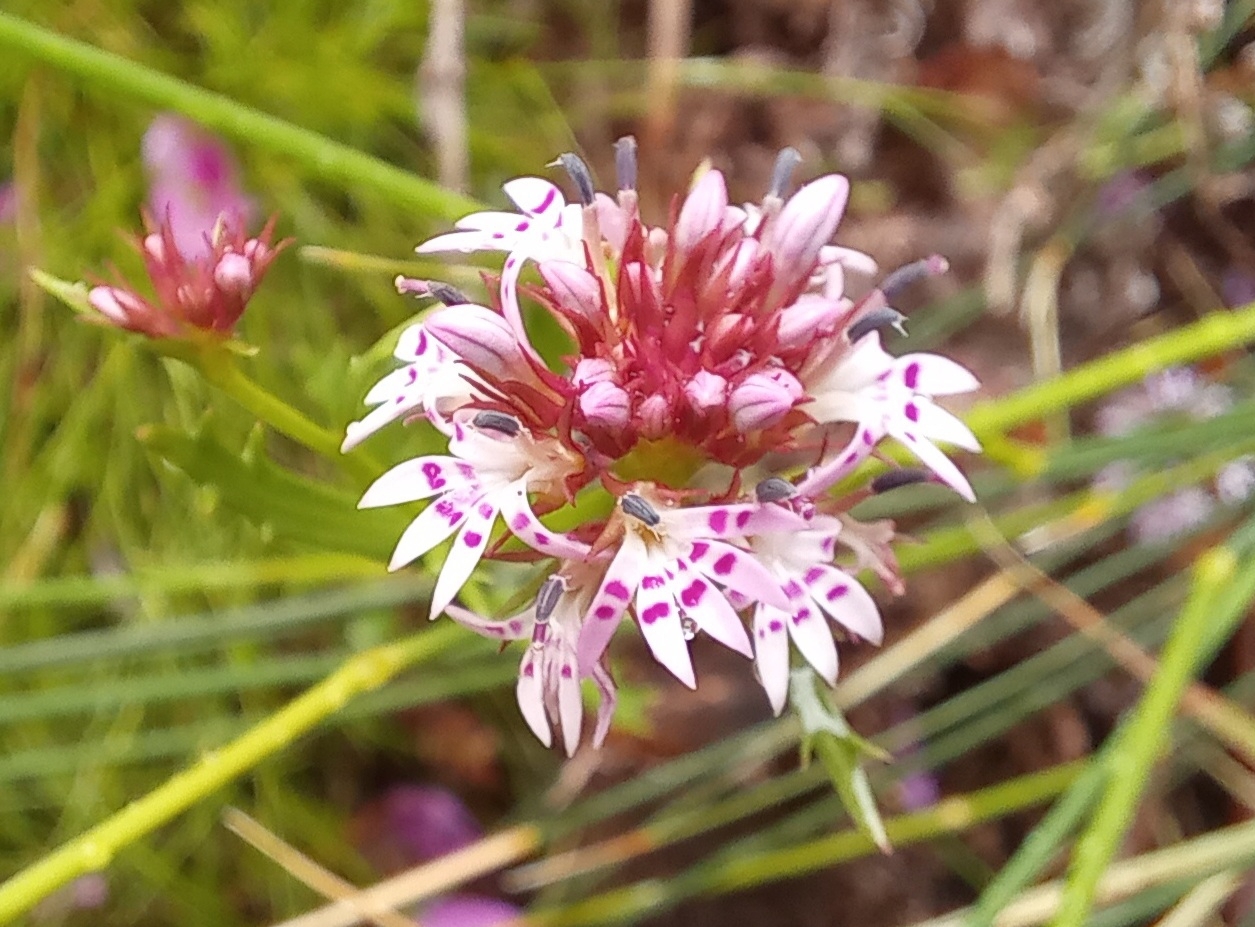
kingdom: Plantae
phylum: Tracheophyta
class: Magnoliopsida
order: Asterales
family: Campanulaceae
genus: Lobelia
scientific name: Lobelia jasionoides
